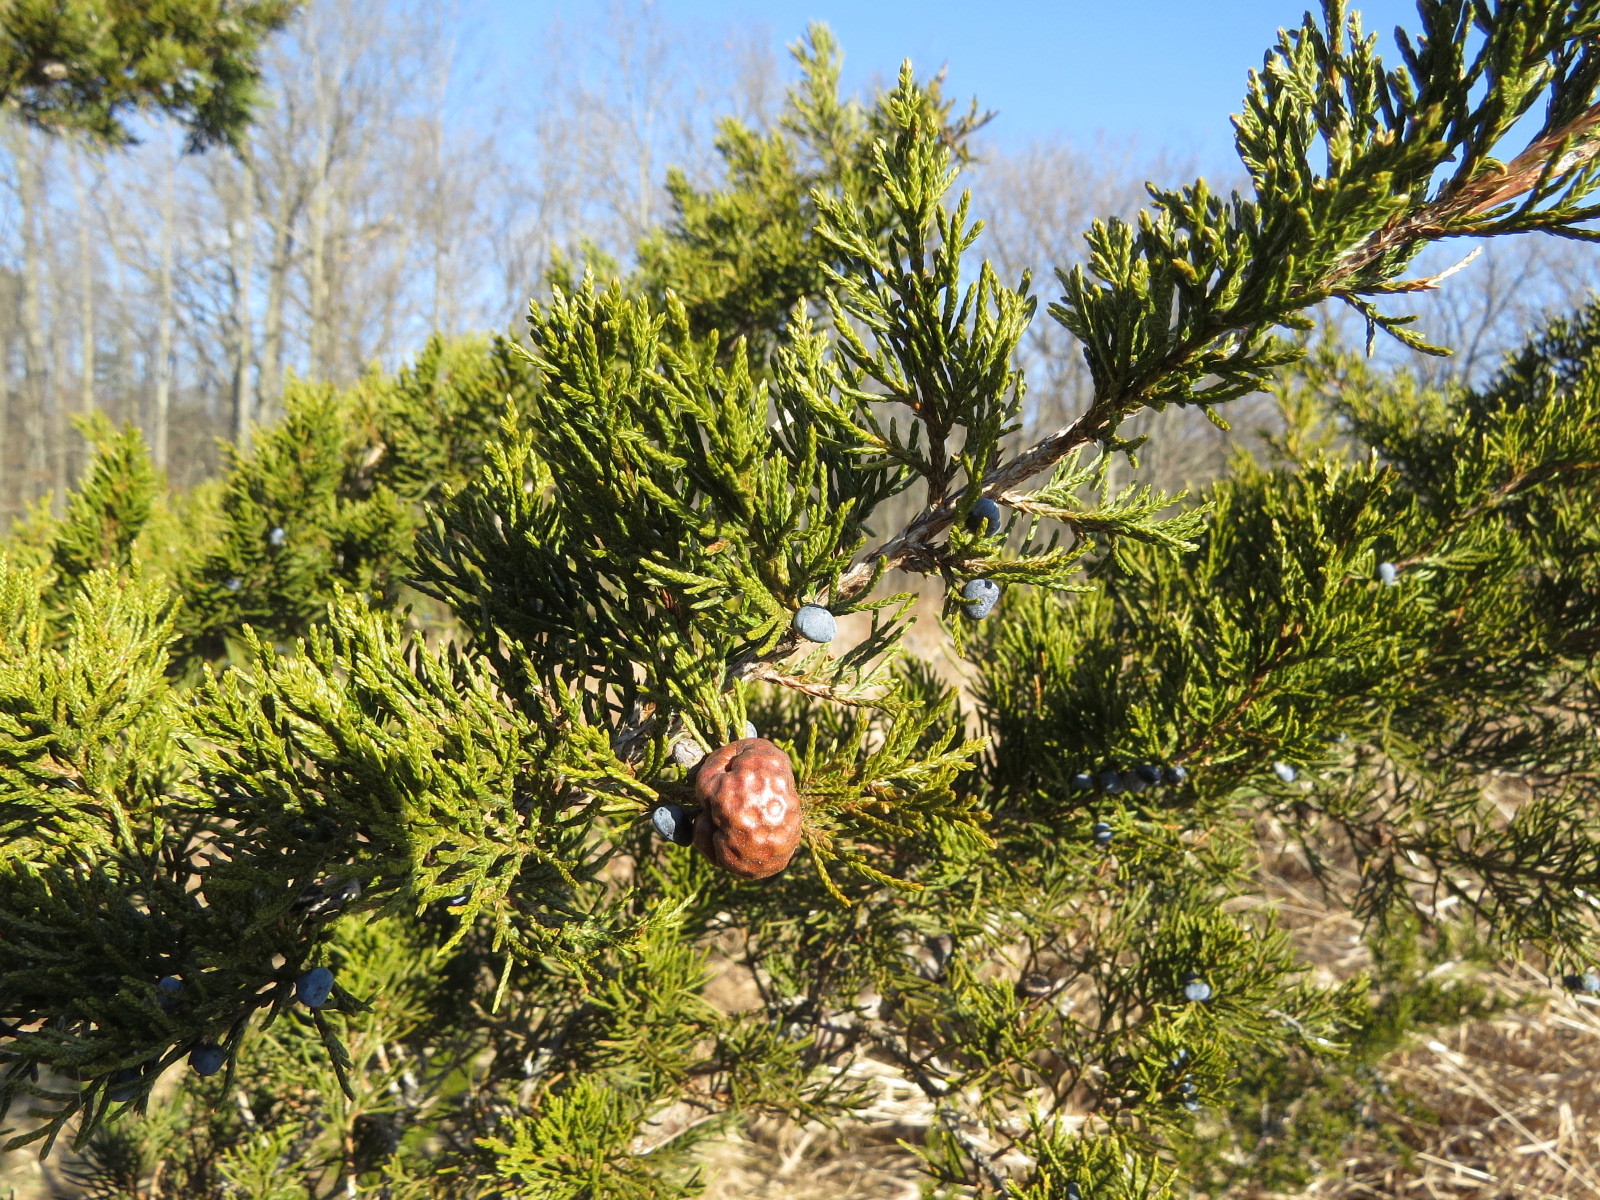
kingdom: Fungi
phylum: Basidiomycota
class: Pucciniomycetes
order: Pucciniales
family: Gymnosporangiaceae
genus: Gymnosporangium
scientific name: Gymnosporangium juniperi-virginianae
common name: Juniper-apple rust
